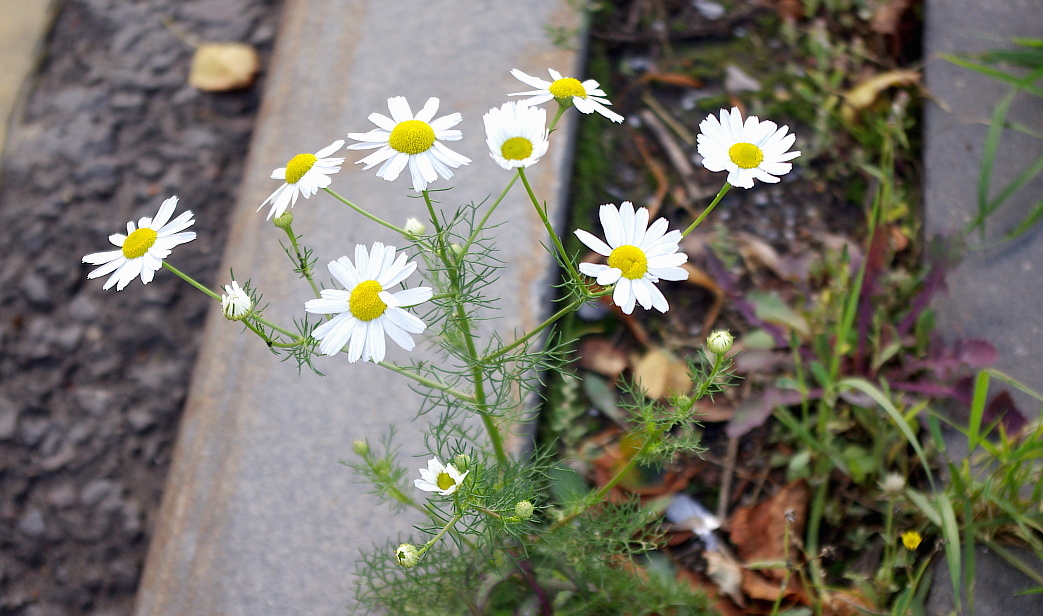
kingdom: Plantae
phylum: Tracheophyta
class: Magnoliopsida
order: Asterales
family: Asteraceae
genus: Tripleurospermum
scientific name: Tripleurospermum inodorum
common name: Scentless mayweed
